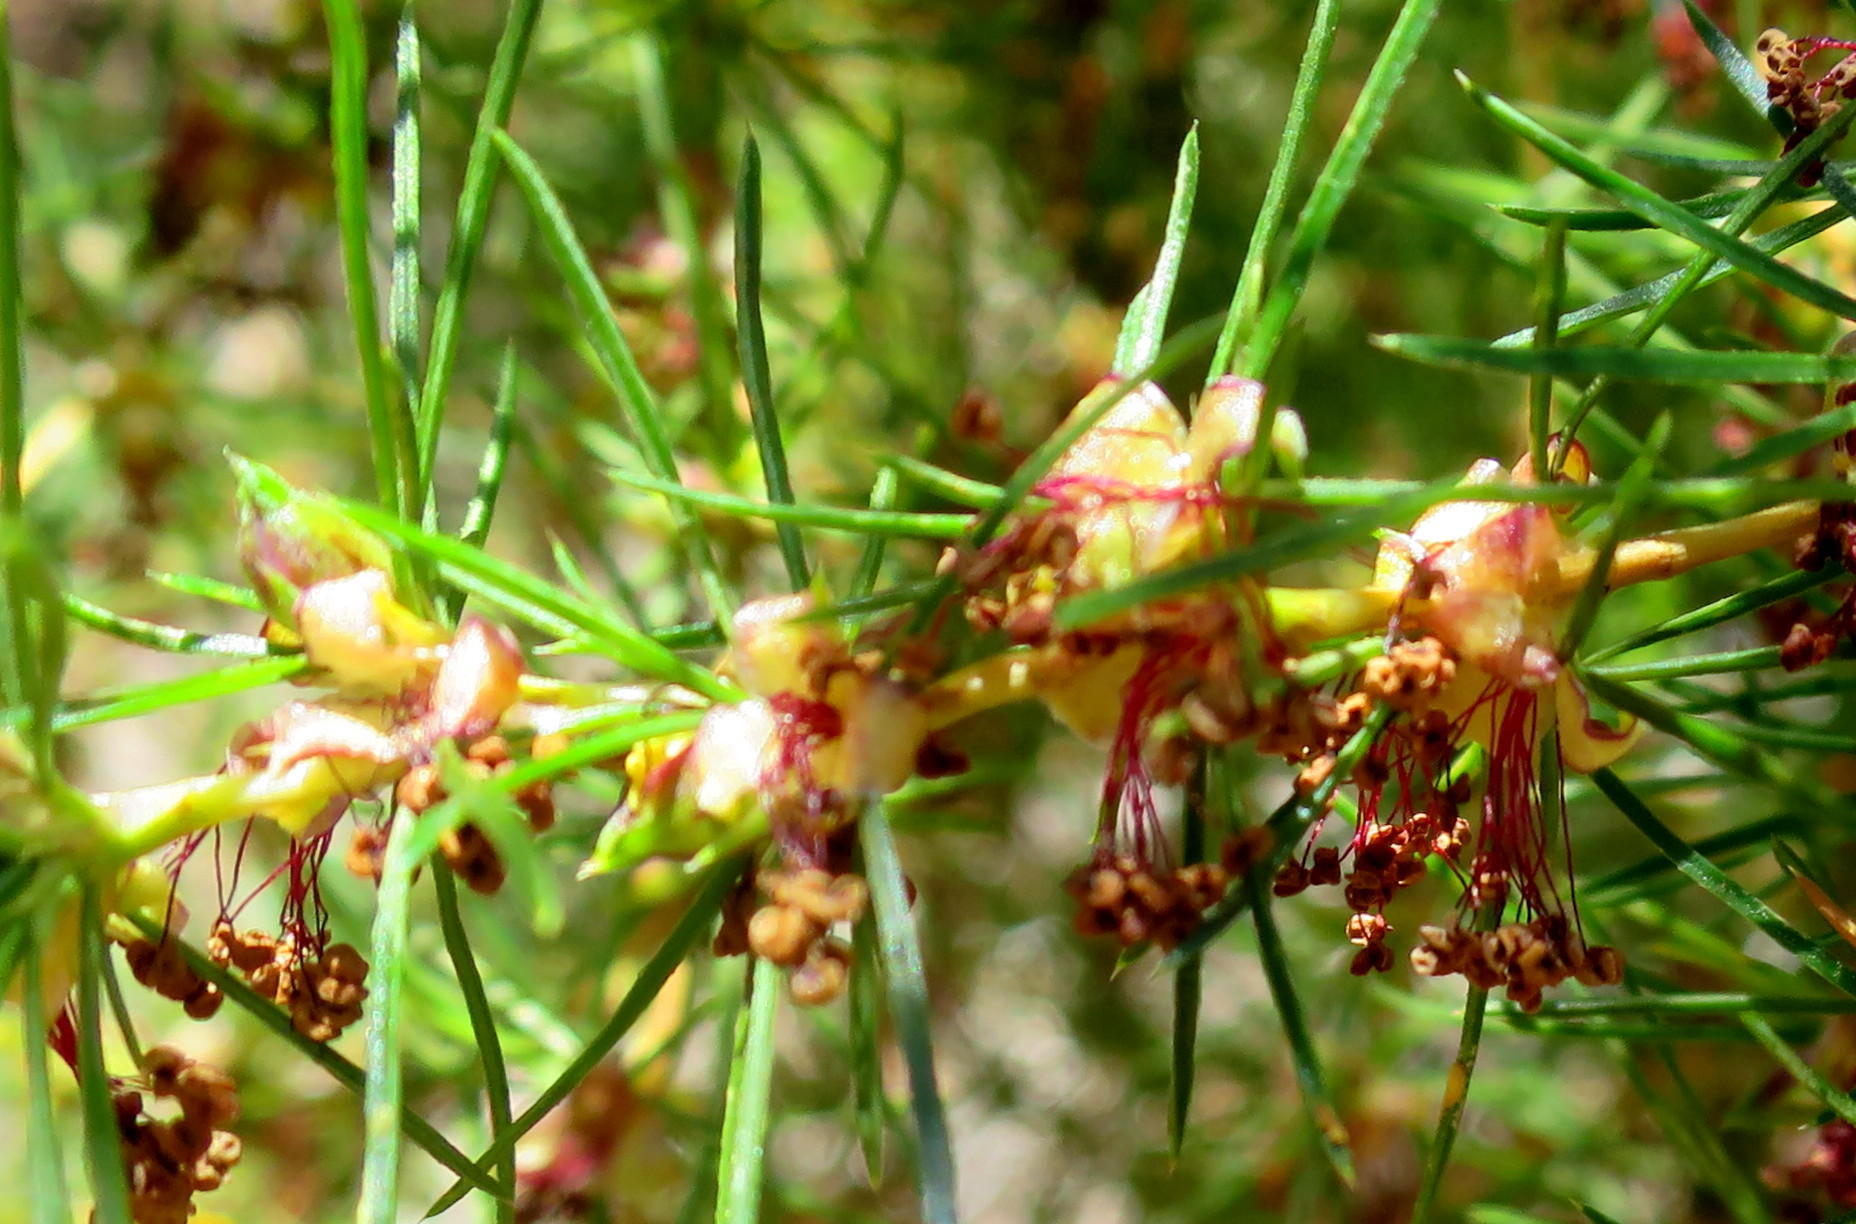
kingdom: Plantae
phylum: Tracheophyta
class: Magnoliopsida
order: Rosales
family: Rosaceae
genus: Cliffortia
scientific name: Cliffortia burchellii
